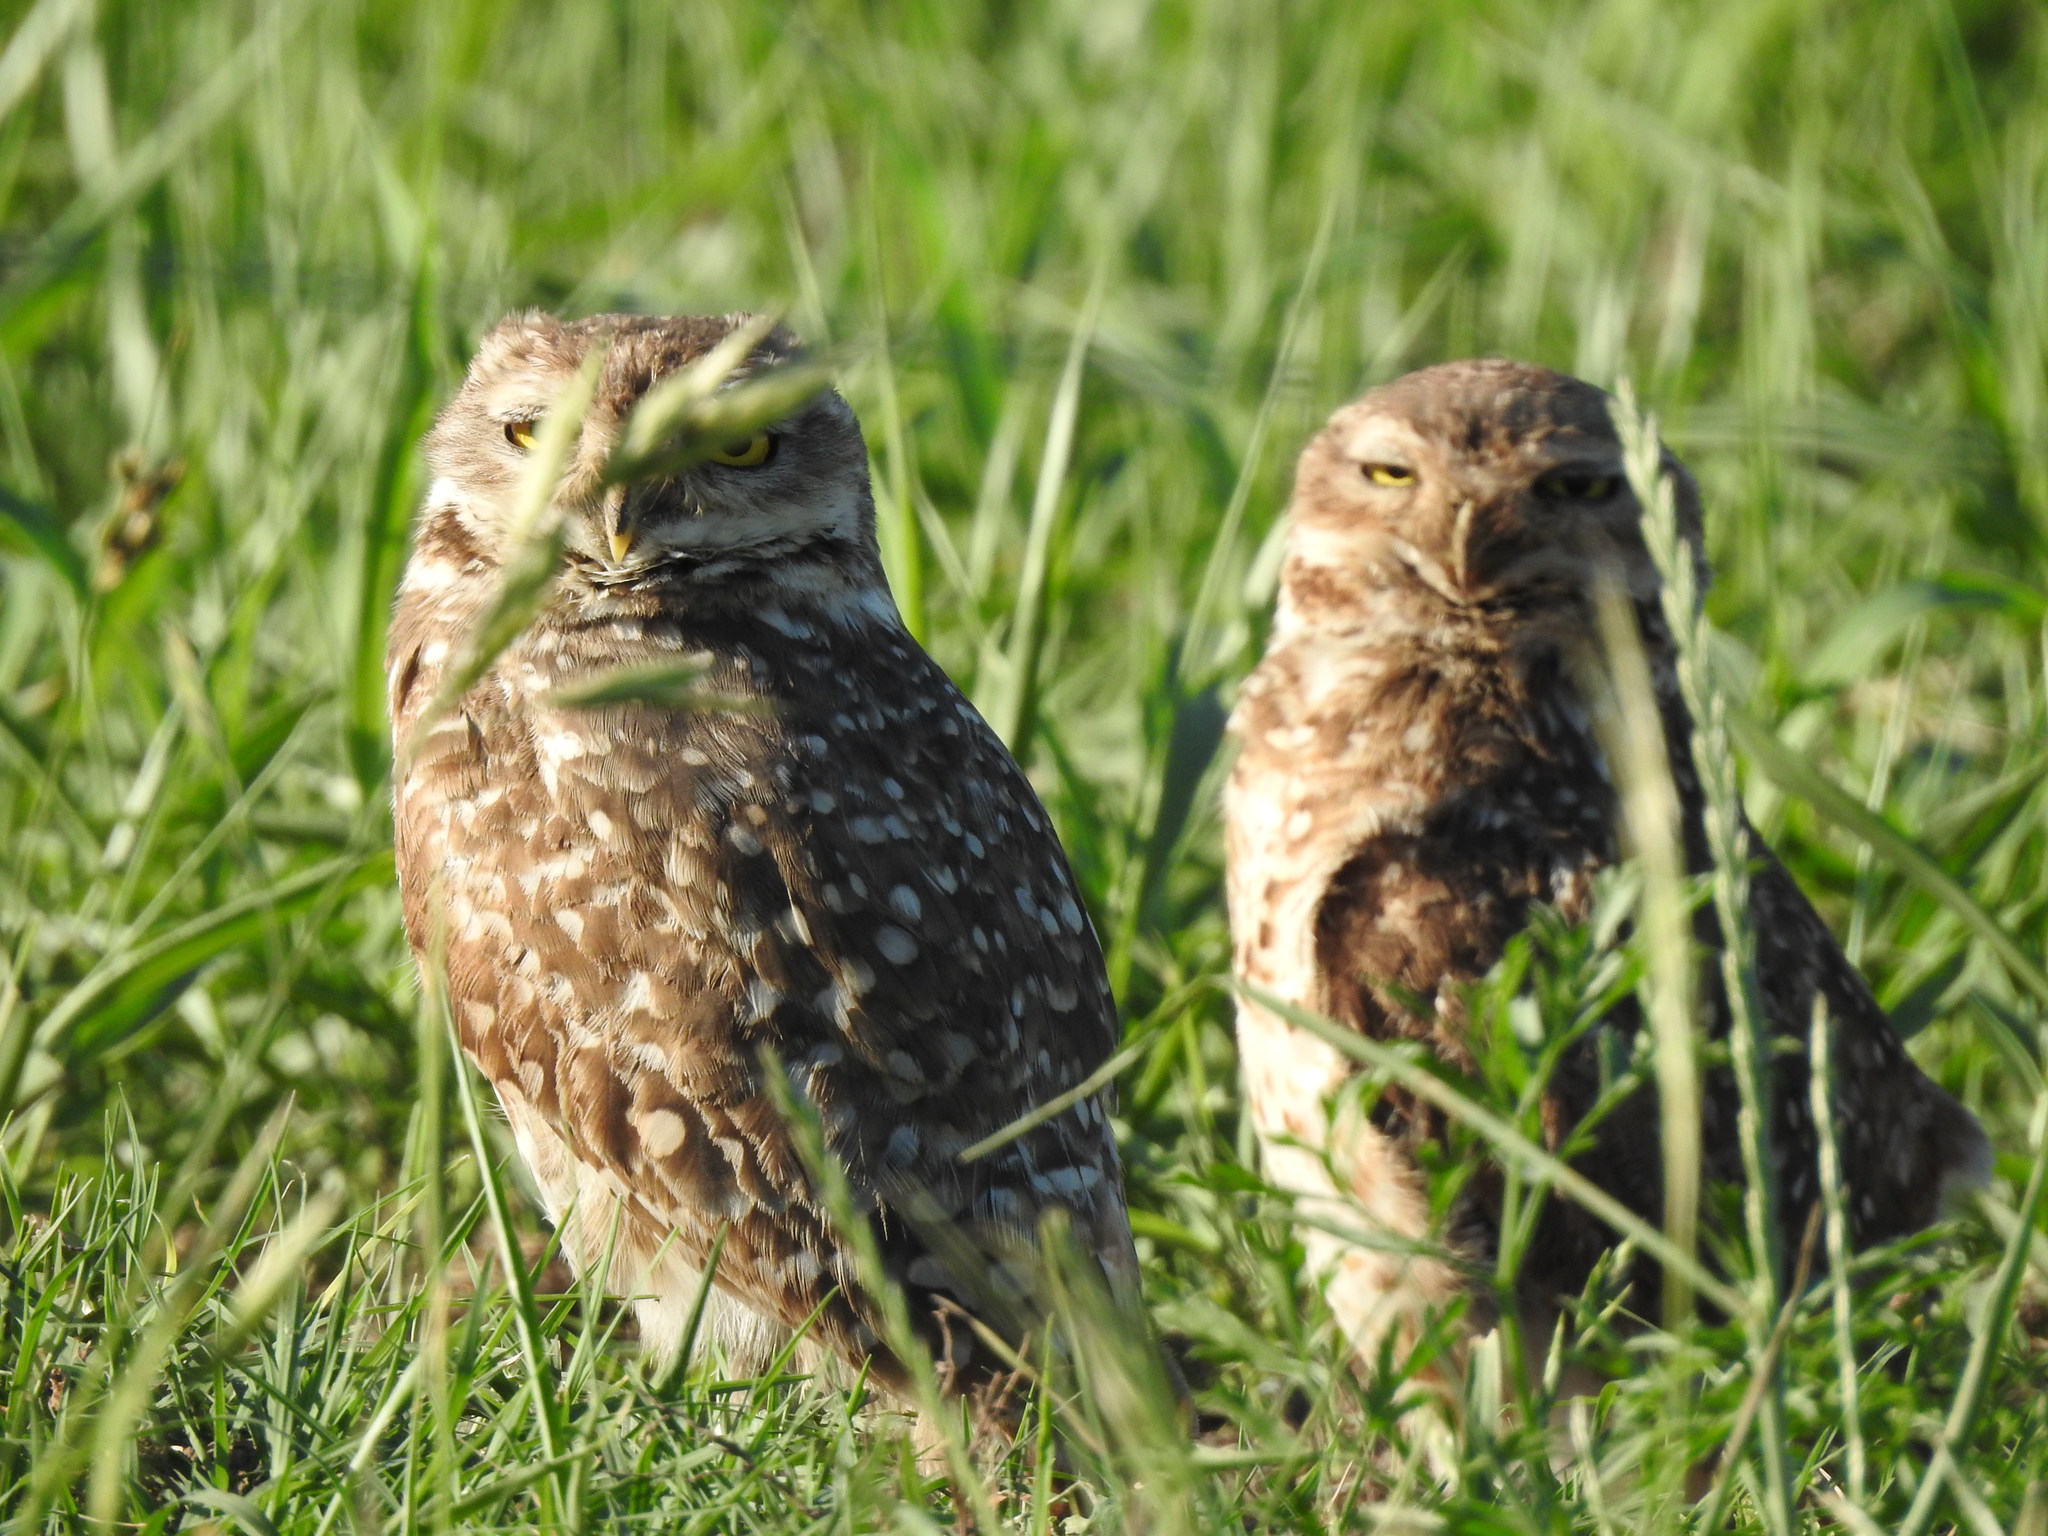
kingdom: Animalia
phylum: Chordata
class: Aves
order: Strigiformes
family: Strigidae
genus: Athene
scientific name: Athene cunicularia
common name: Burrowing owl
